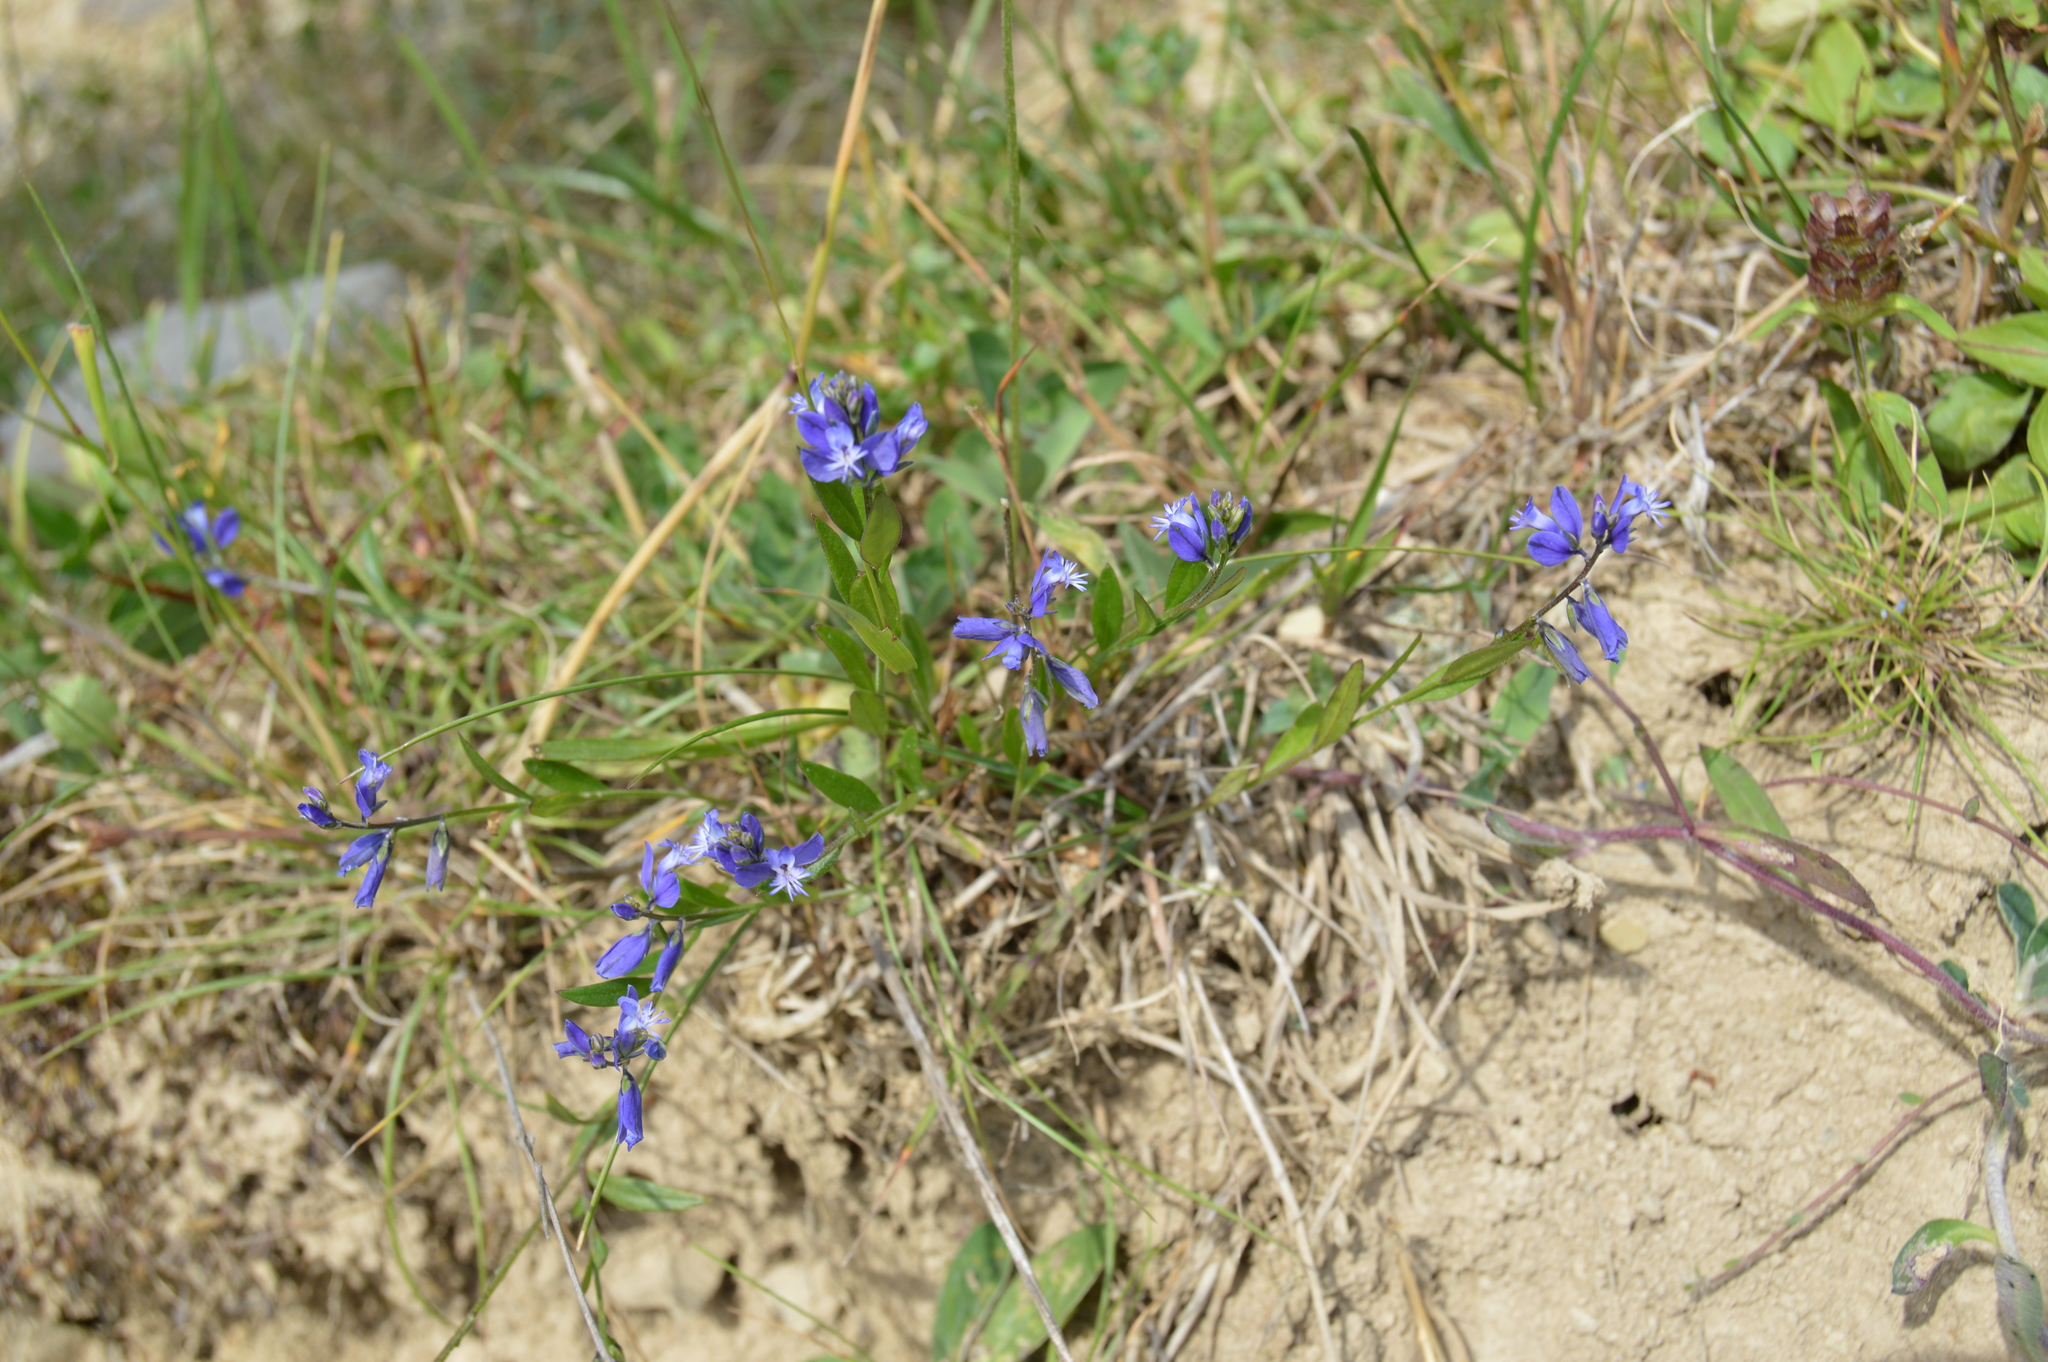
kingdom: Plantae
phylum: Tracheophyta
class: Magnoliopsida
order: Fabales
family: Polygalaceae
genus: Polygala
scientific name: Polygala vulgaris
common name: Common milkwort
